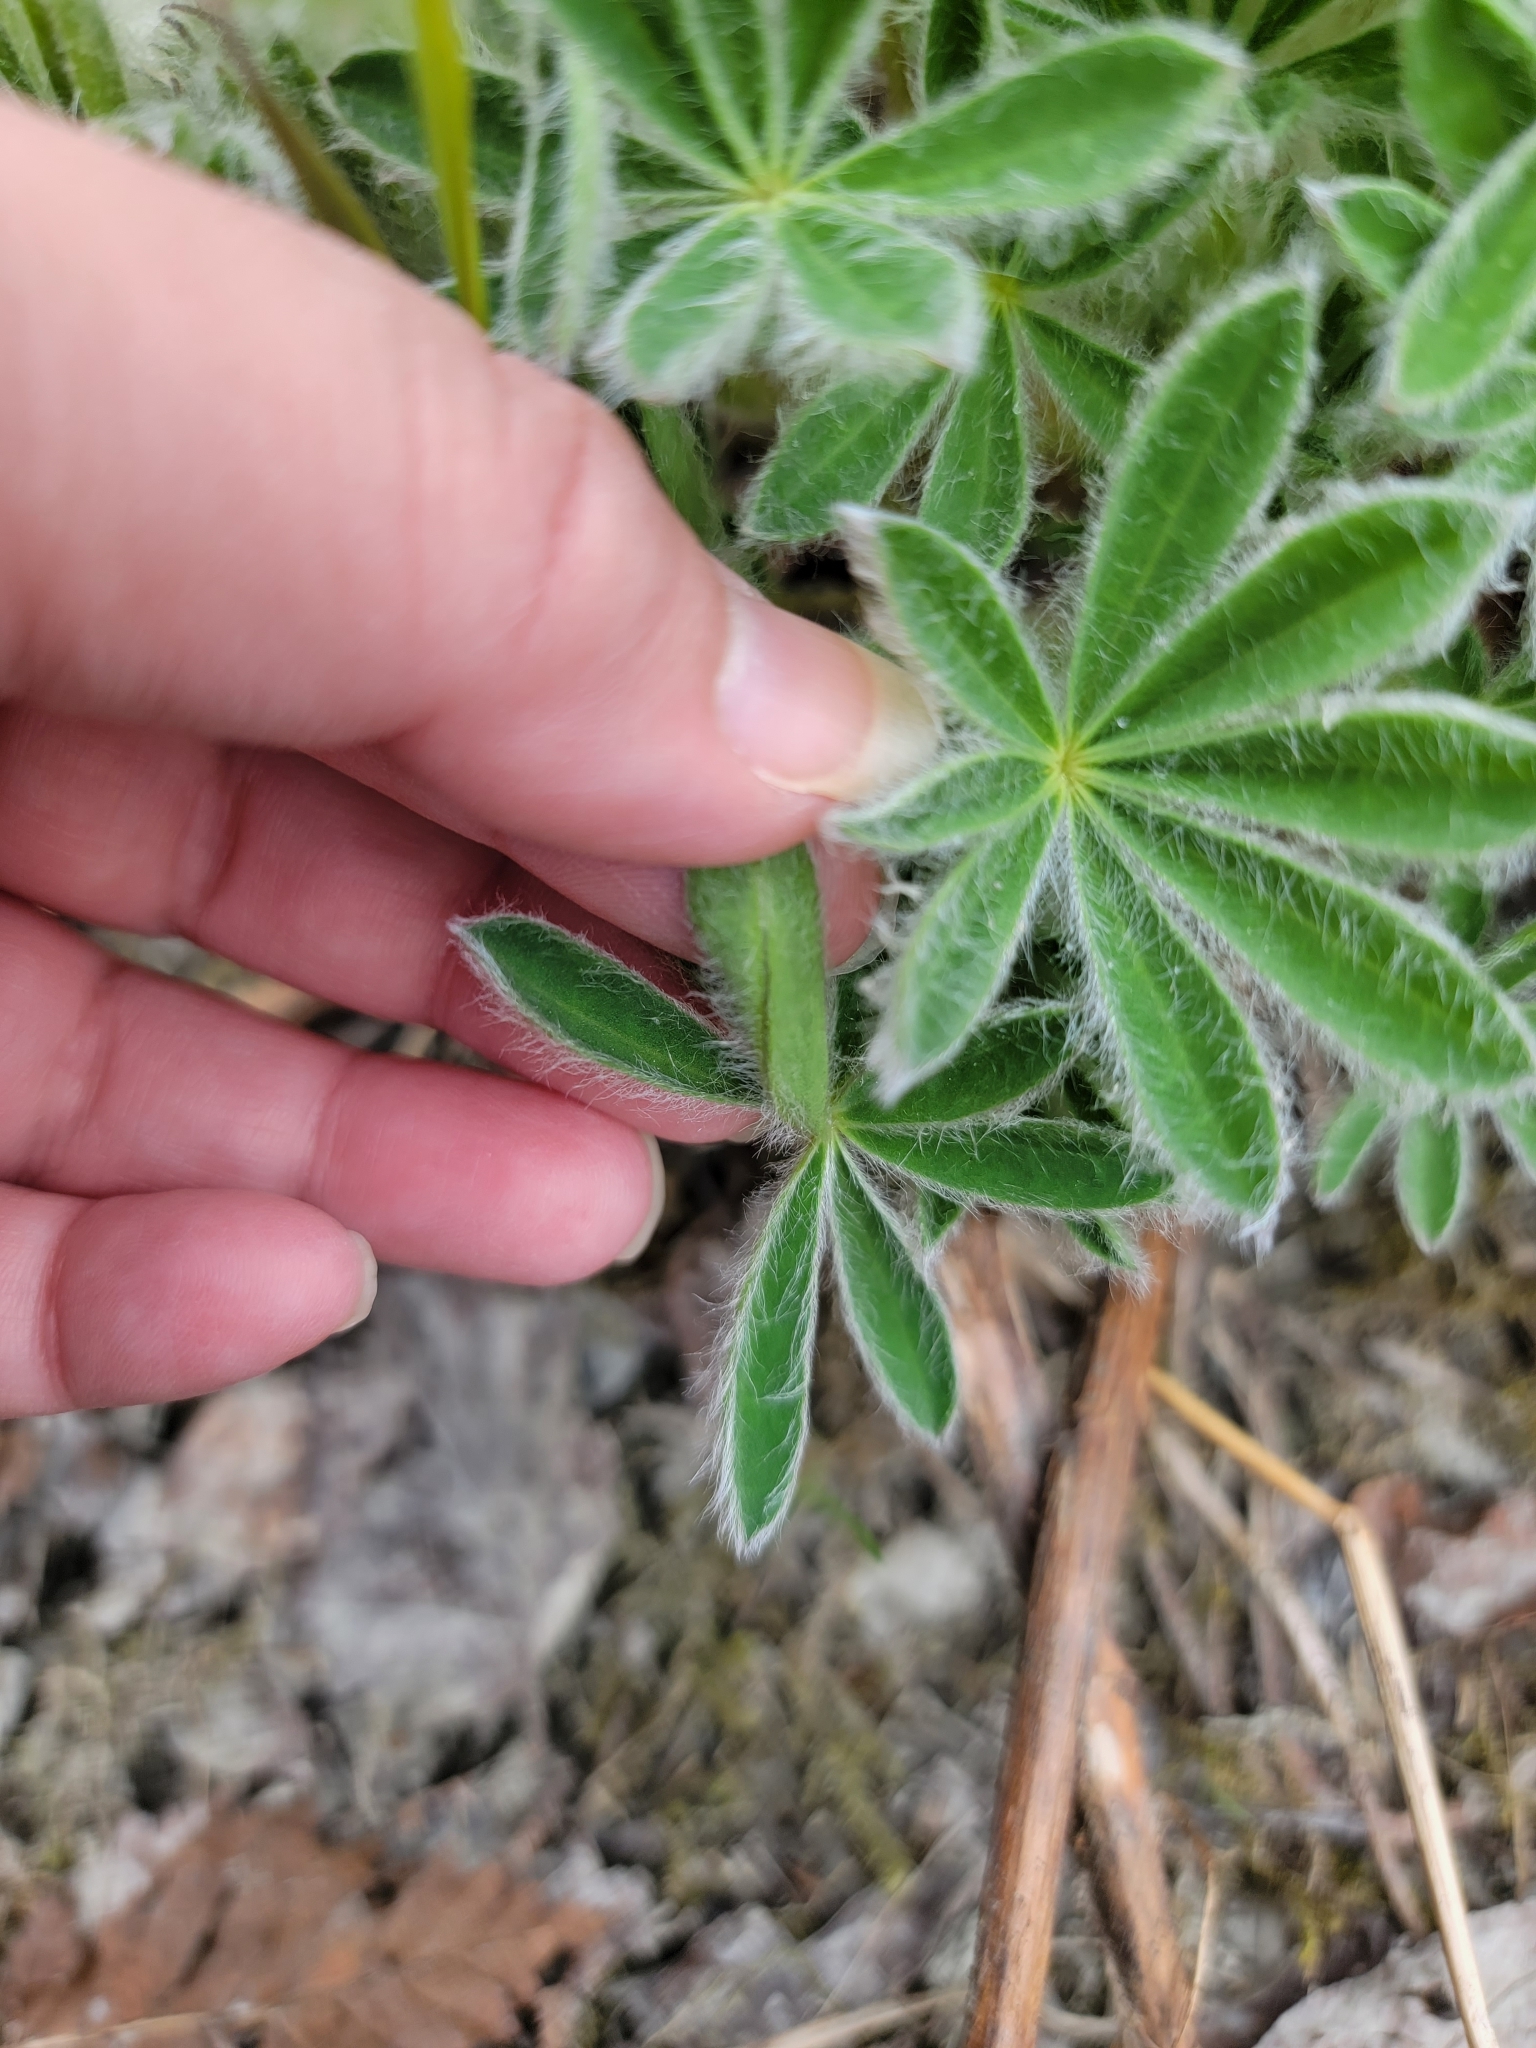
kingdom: Plantae
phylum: Tracheophyta
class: Magnoliopsida
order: Fabales
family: Fabaceae
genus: Lupinus
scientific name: Lupinus nootkatensis
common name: Nootka lupine
